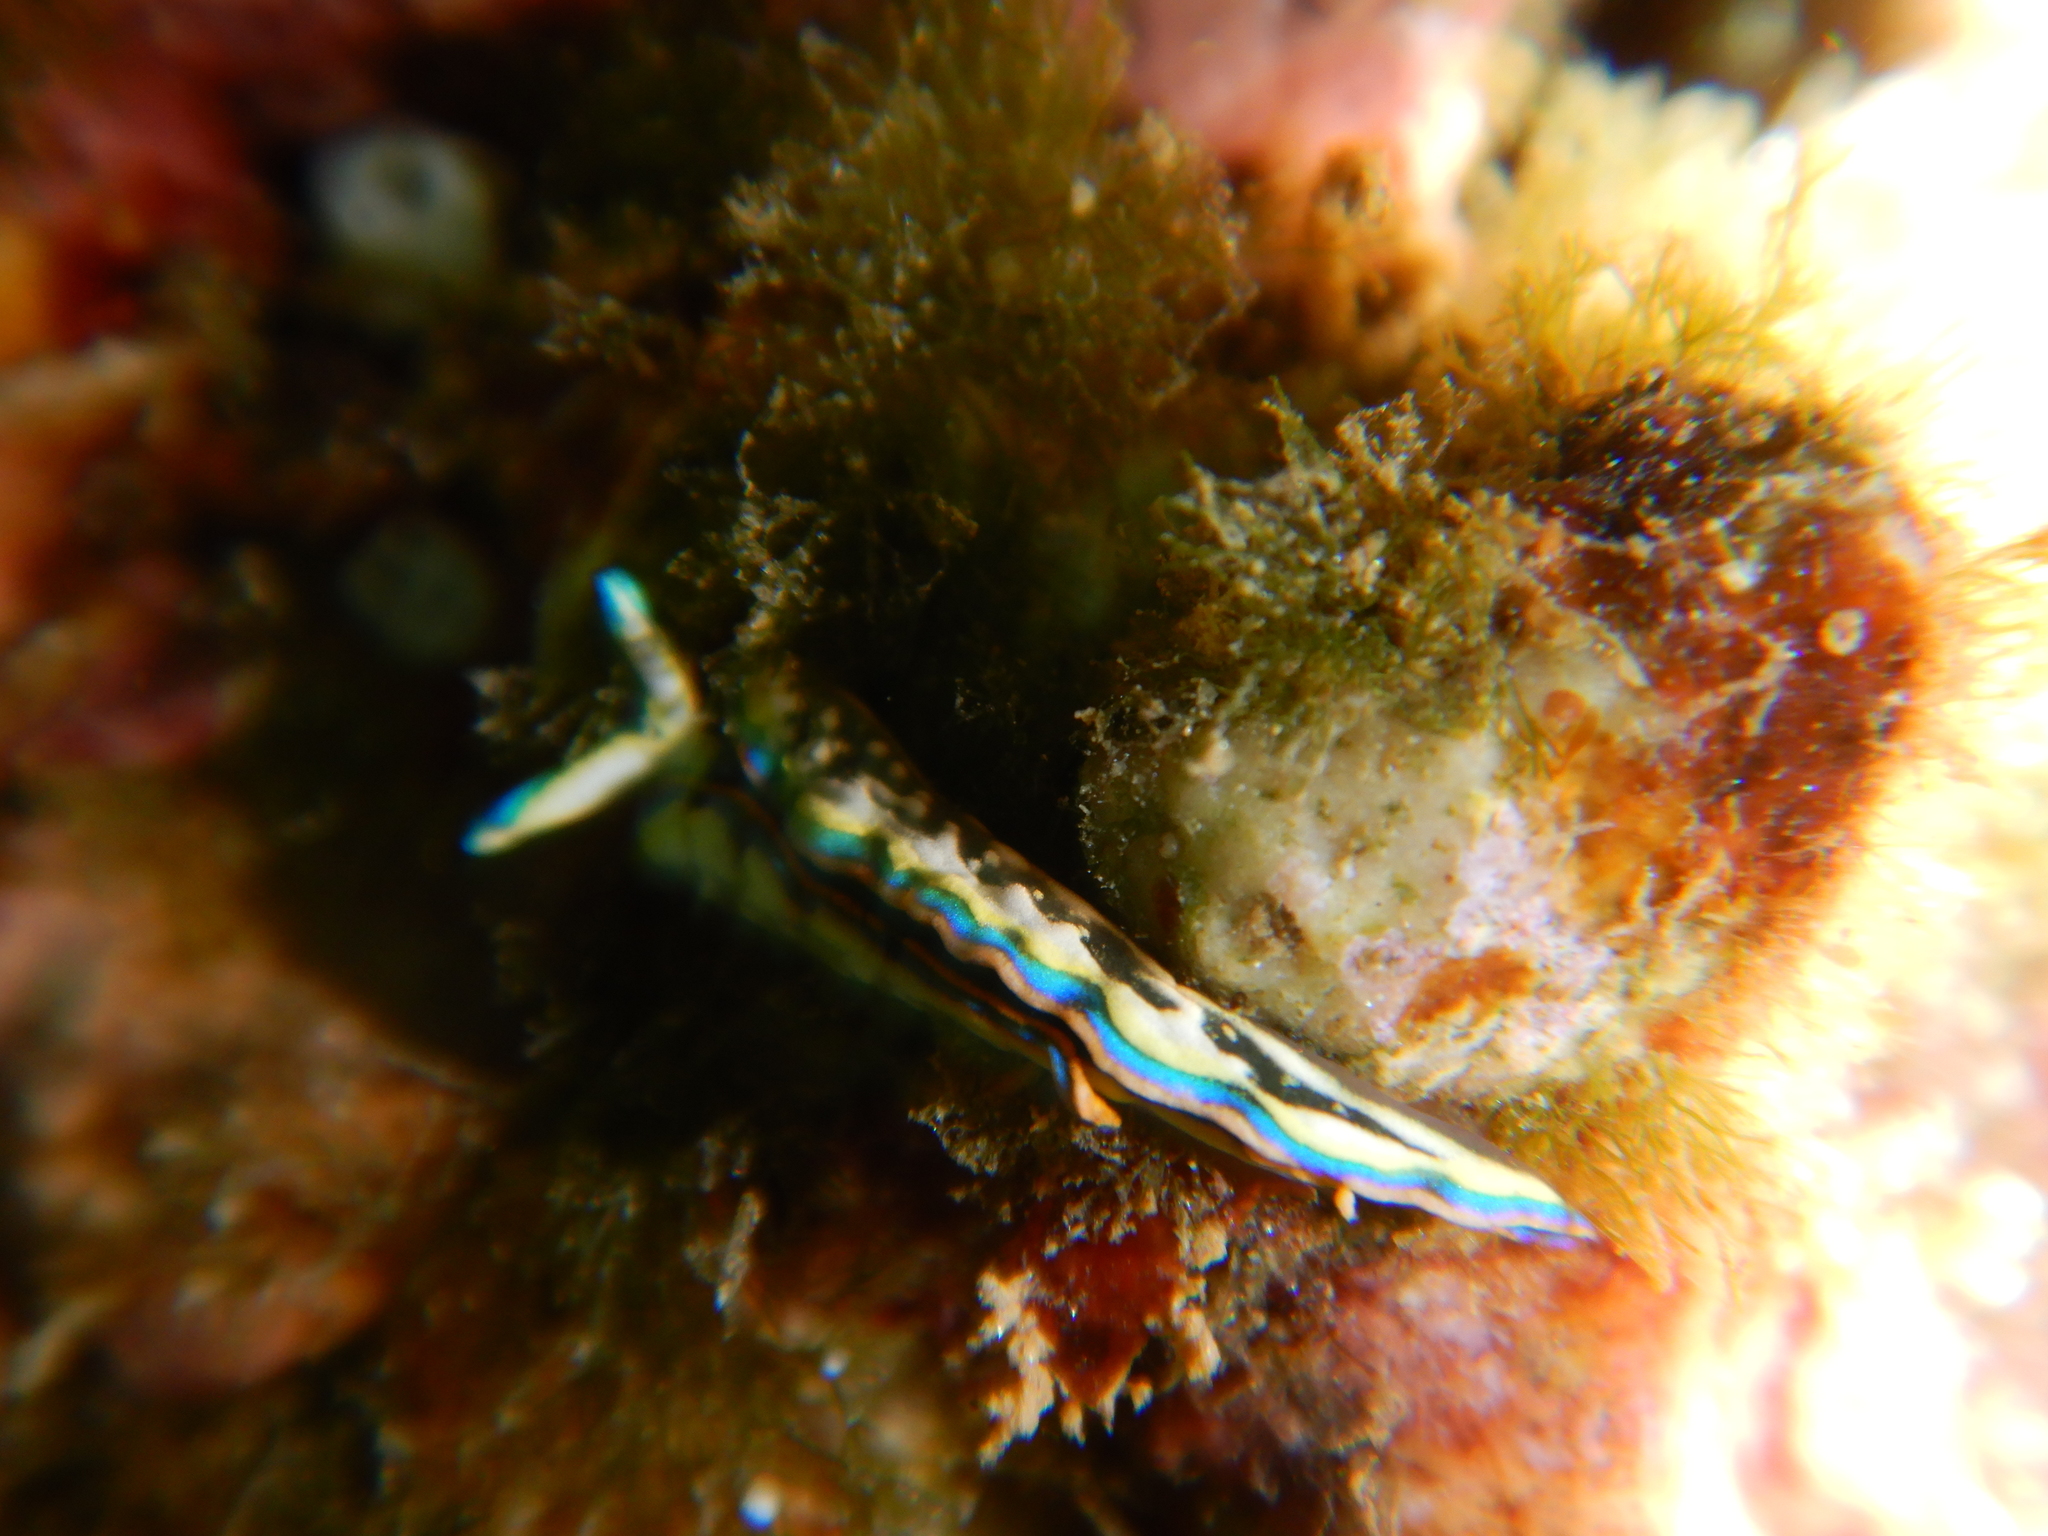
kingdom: Animalia
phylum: Mollusca
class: Gastropoda
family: Plakobranchidae
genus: Thuridilla
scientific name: Thuridilla hopei
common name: Splendid elysia
